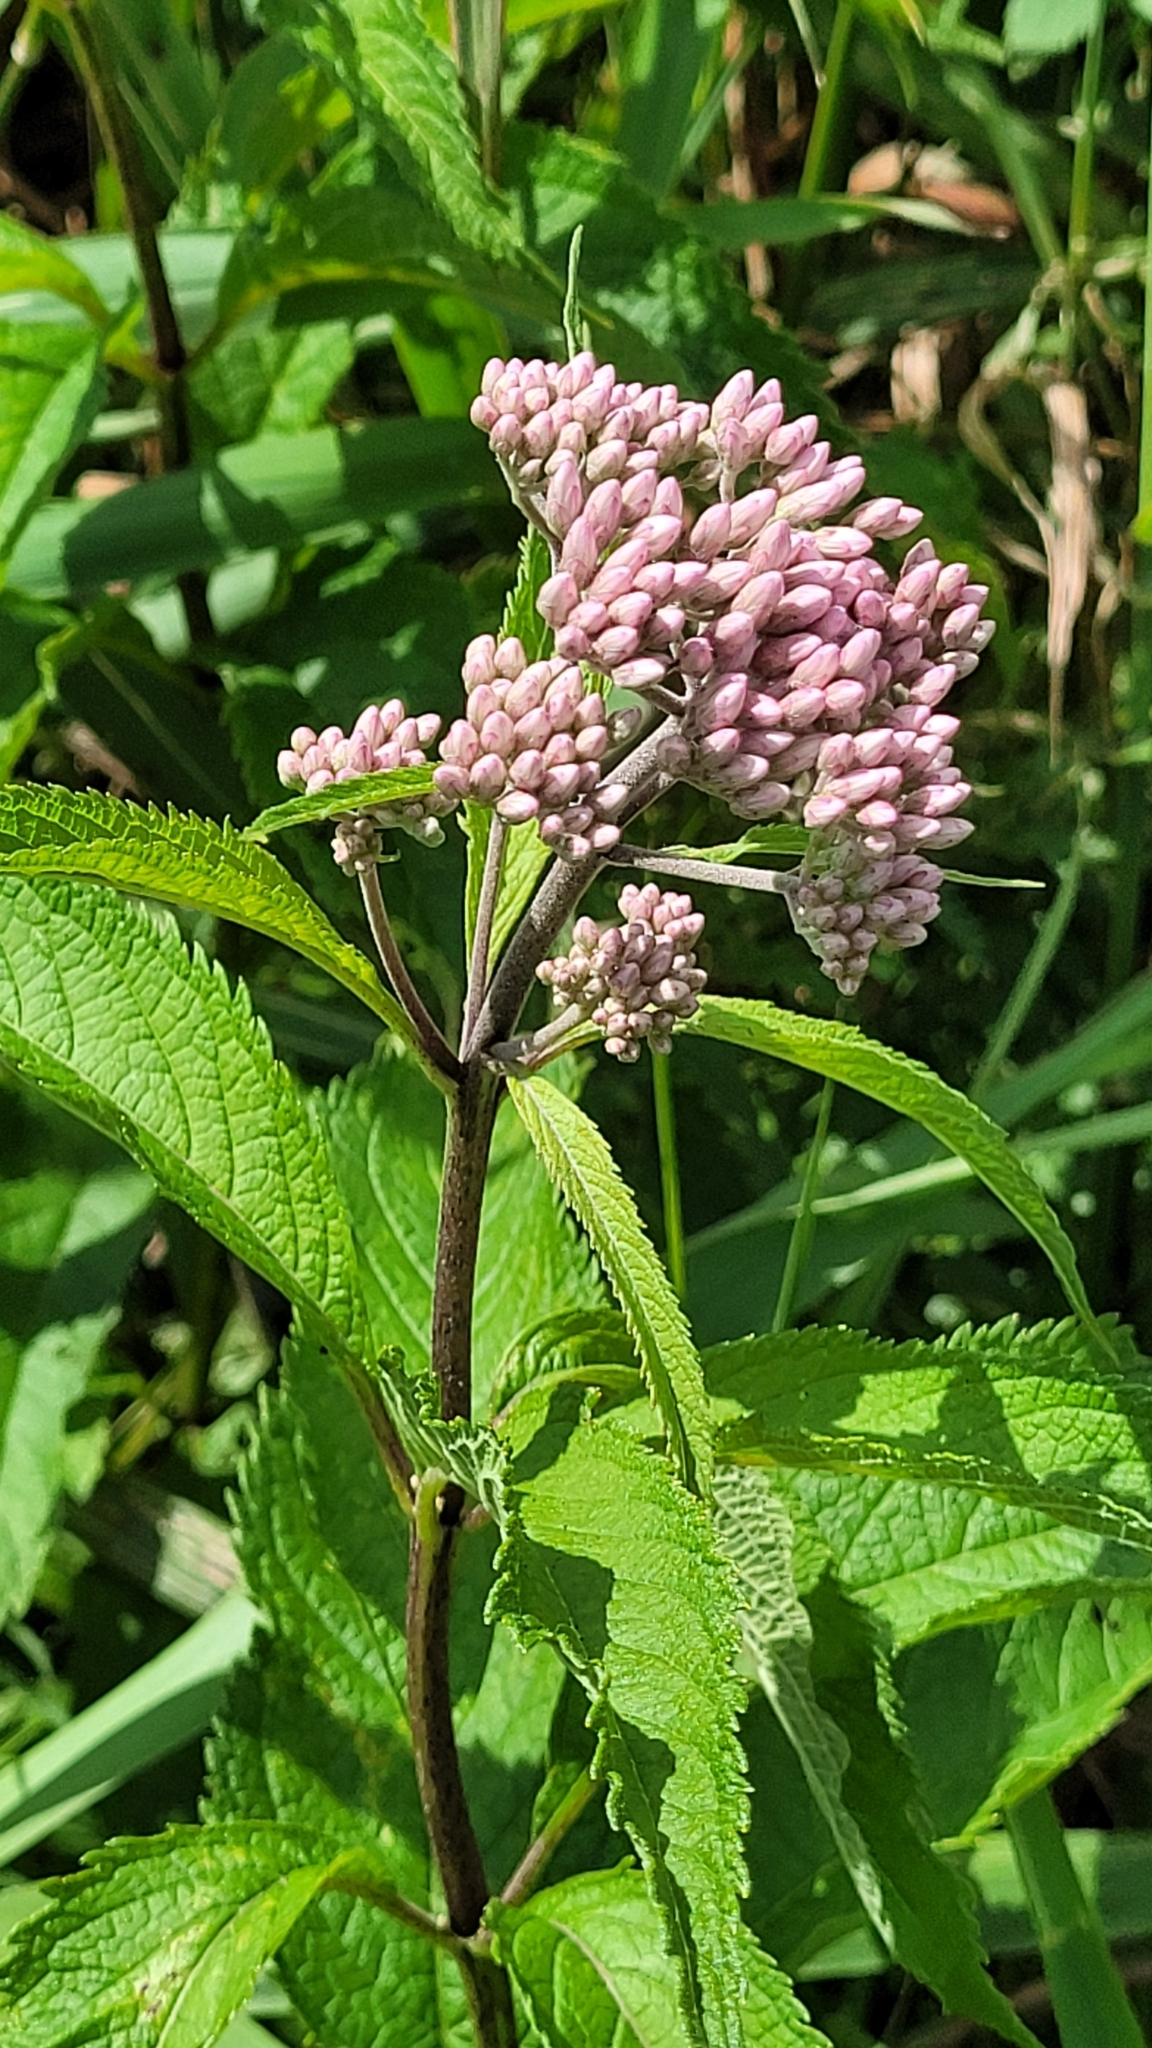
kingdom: Plantae
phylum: Tracheophyta
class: Magnoliopsida
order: Asterales
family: Asteraceae
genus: Eutrochium
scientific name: Eutrochium maculatum
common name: Spotted joe pye weed
